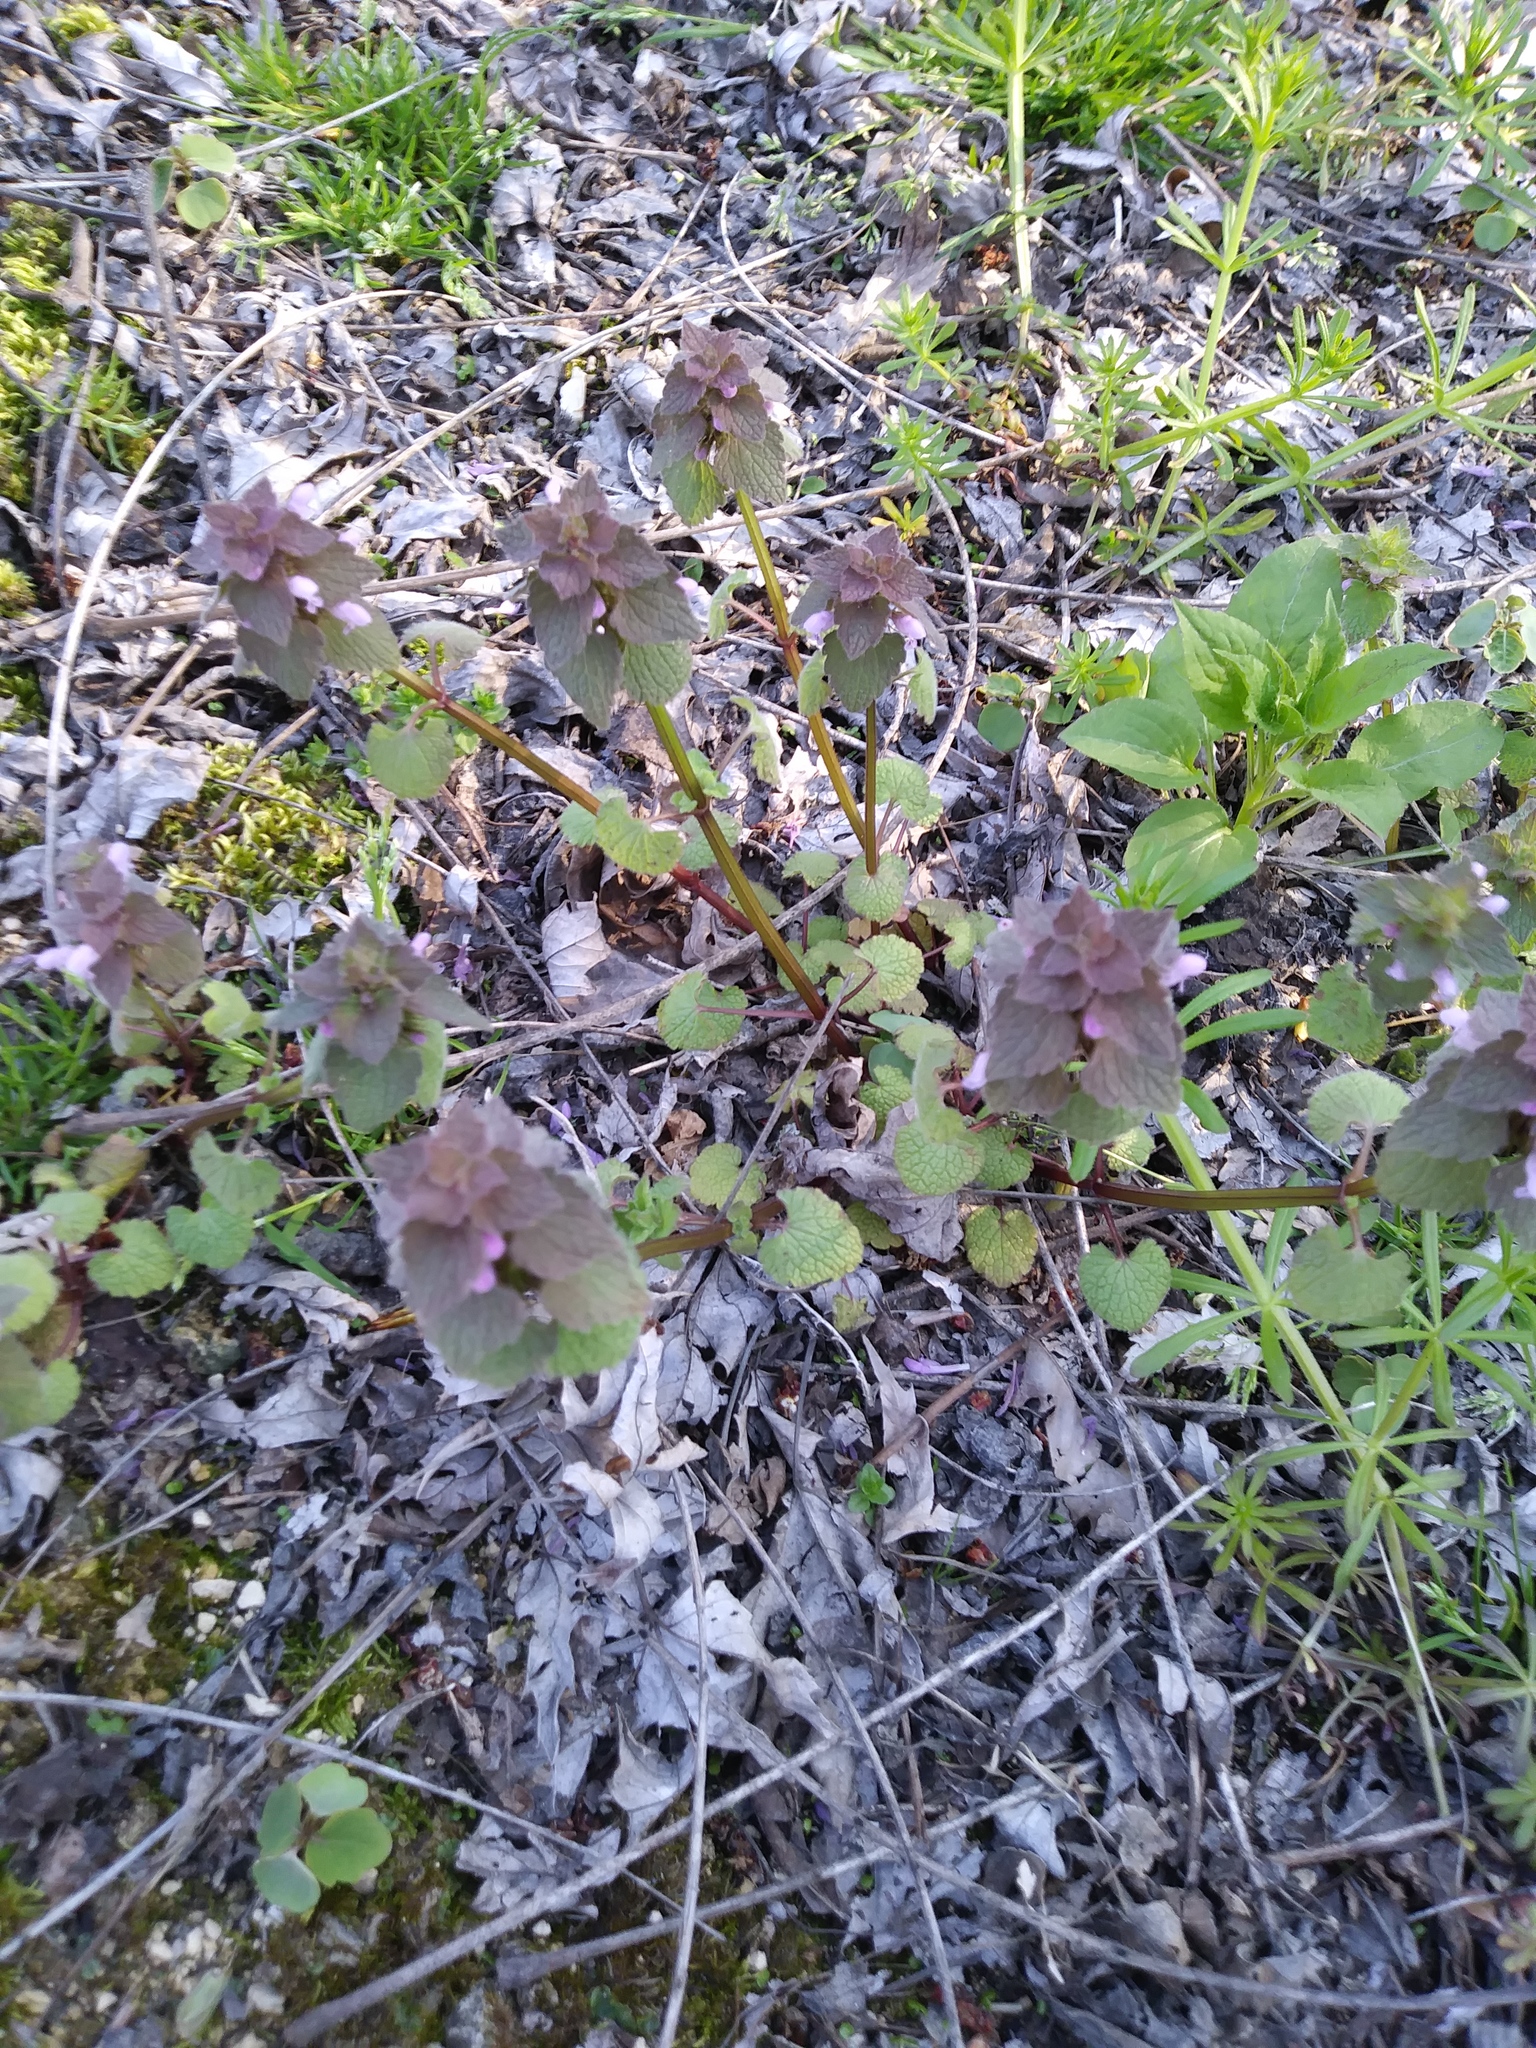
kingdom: Plantae
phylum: Tracheophyta
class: Magnoliopsida
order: Lamiales
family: Lamiaceae
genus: Lamium
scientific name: Lamium purpureum
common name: Red dead-nettle
